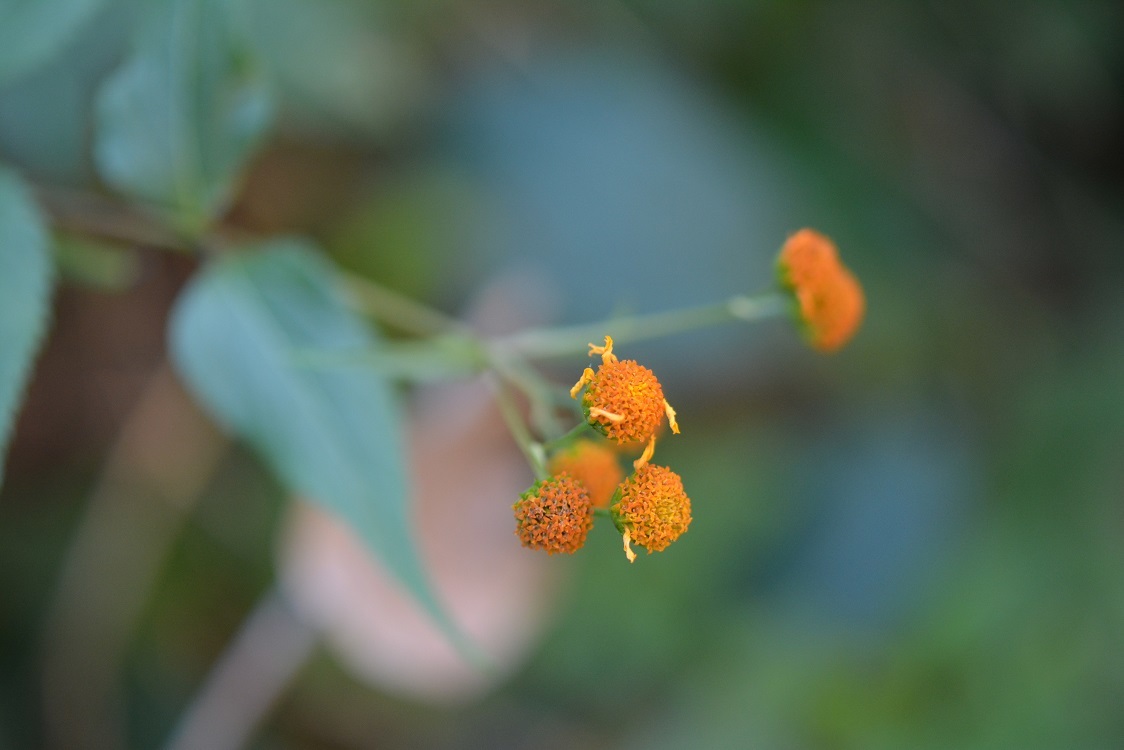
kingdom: Plantae
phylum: Tracheophyta
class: Magnoliopsida
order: Asterales
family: Asteraceae
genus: Verbesina
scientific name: Verbesina crocata
